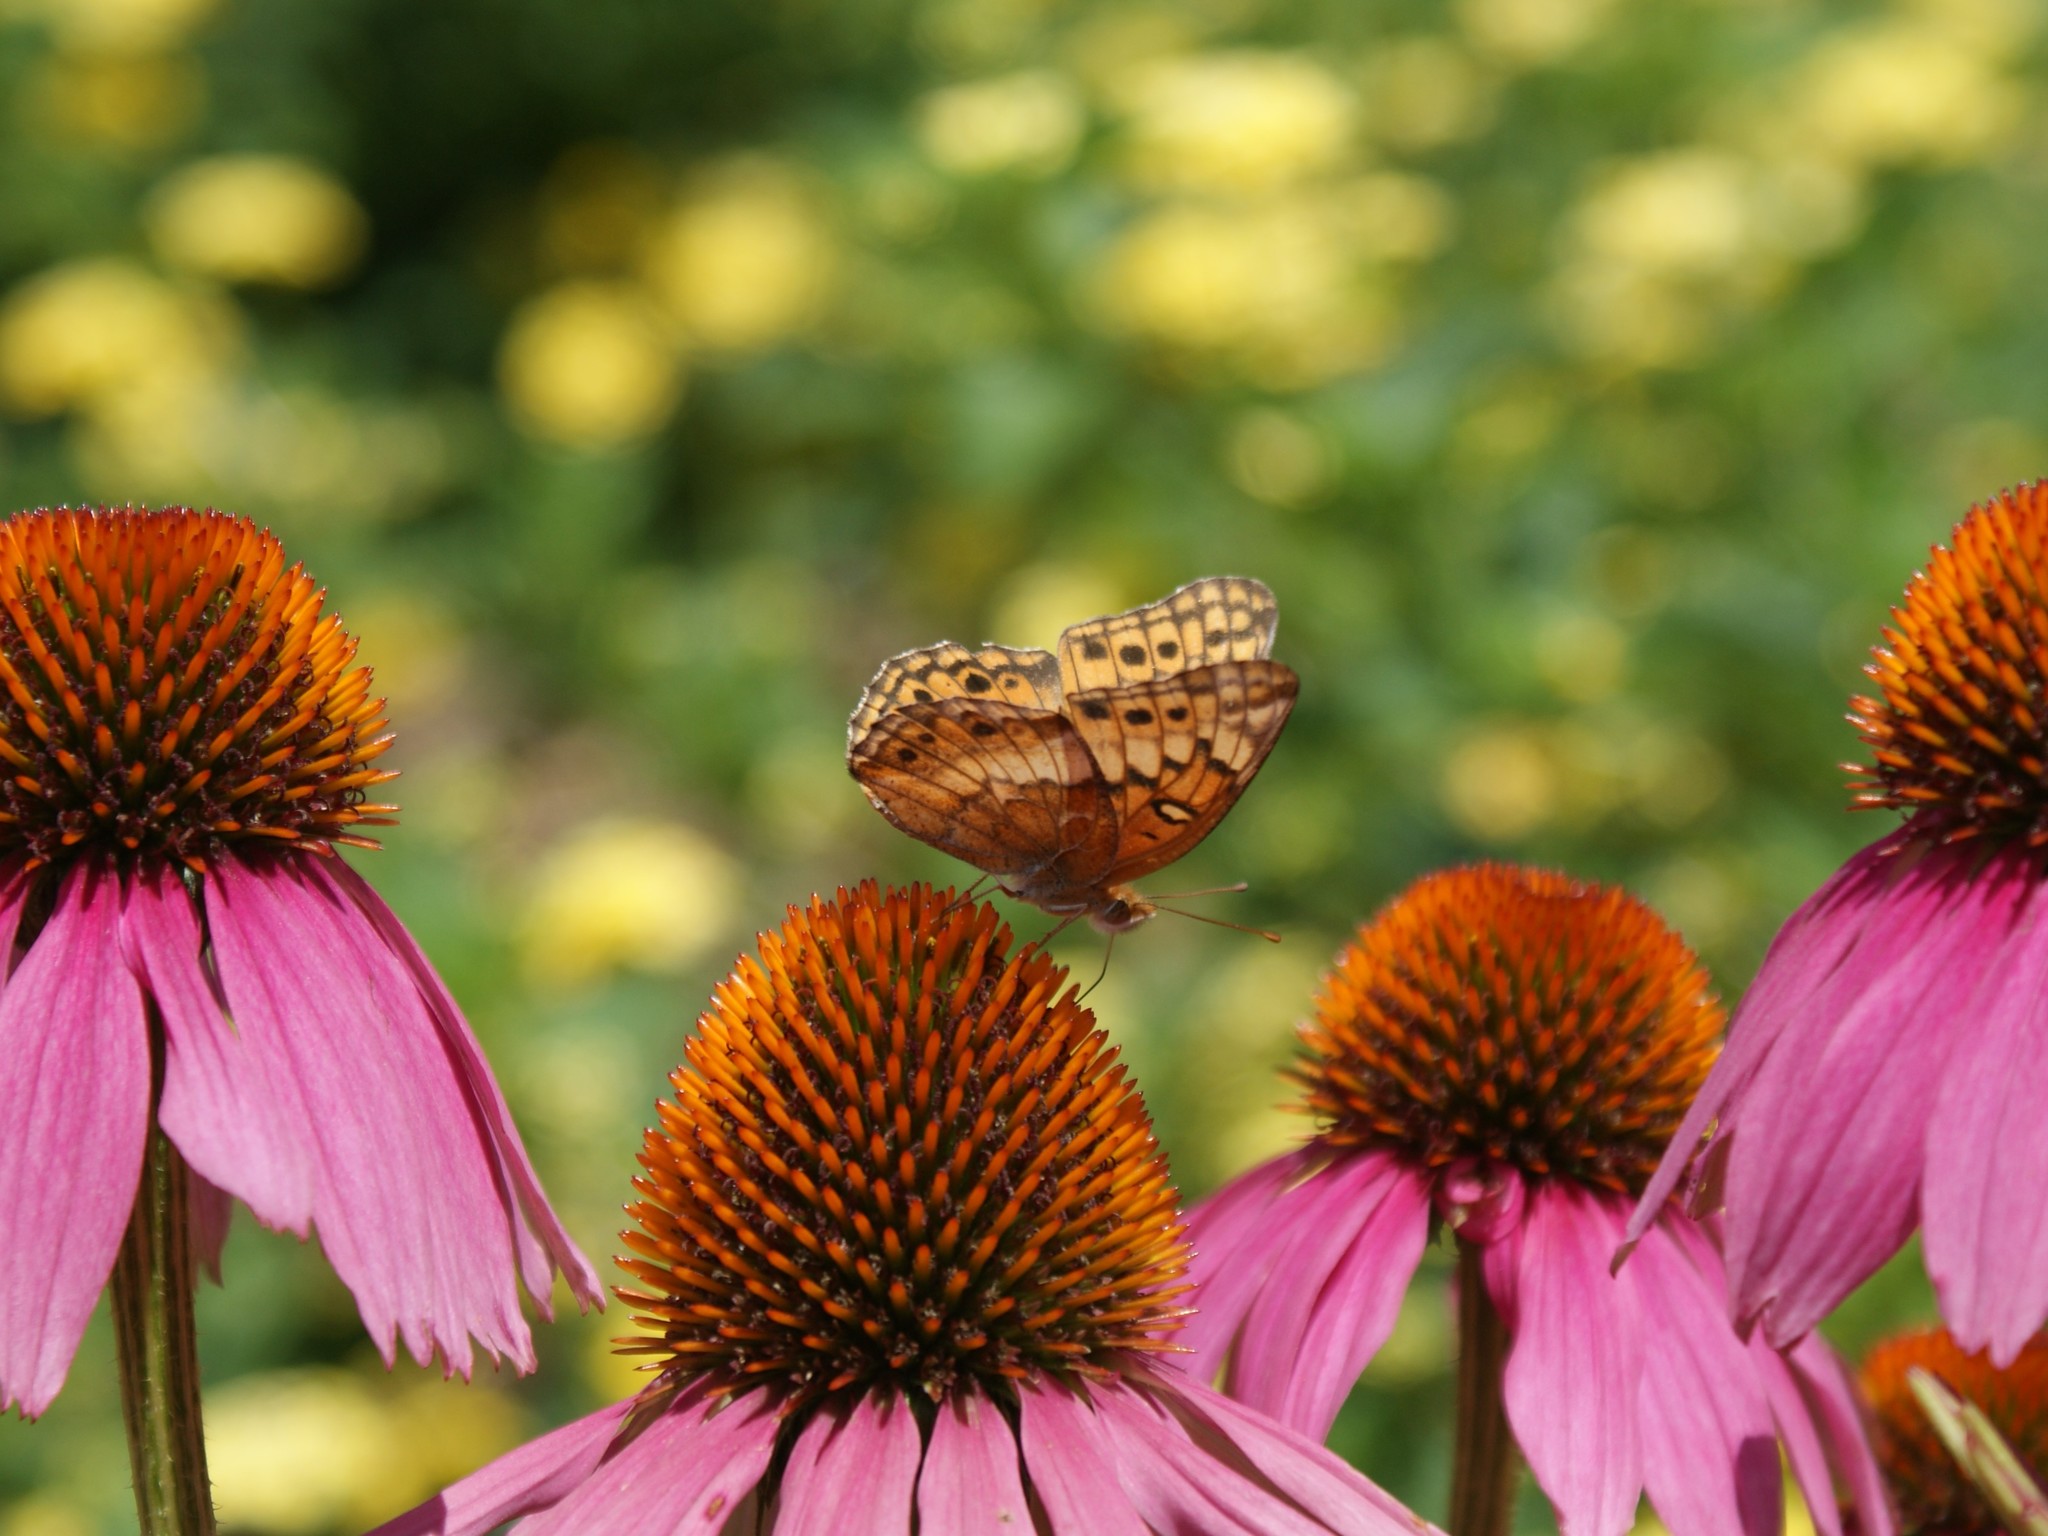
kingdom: Animalia
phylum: Arthropoda
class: Insecta
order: Lepidoptera
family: Nymphalidae
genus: Euptoieta
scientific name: Euptoieta claudia
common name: Variegated fritillary
